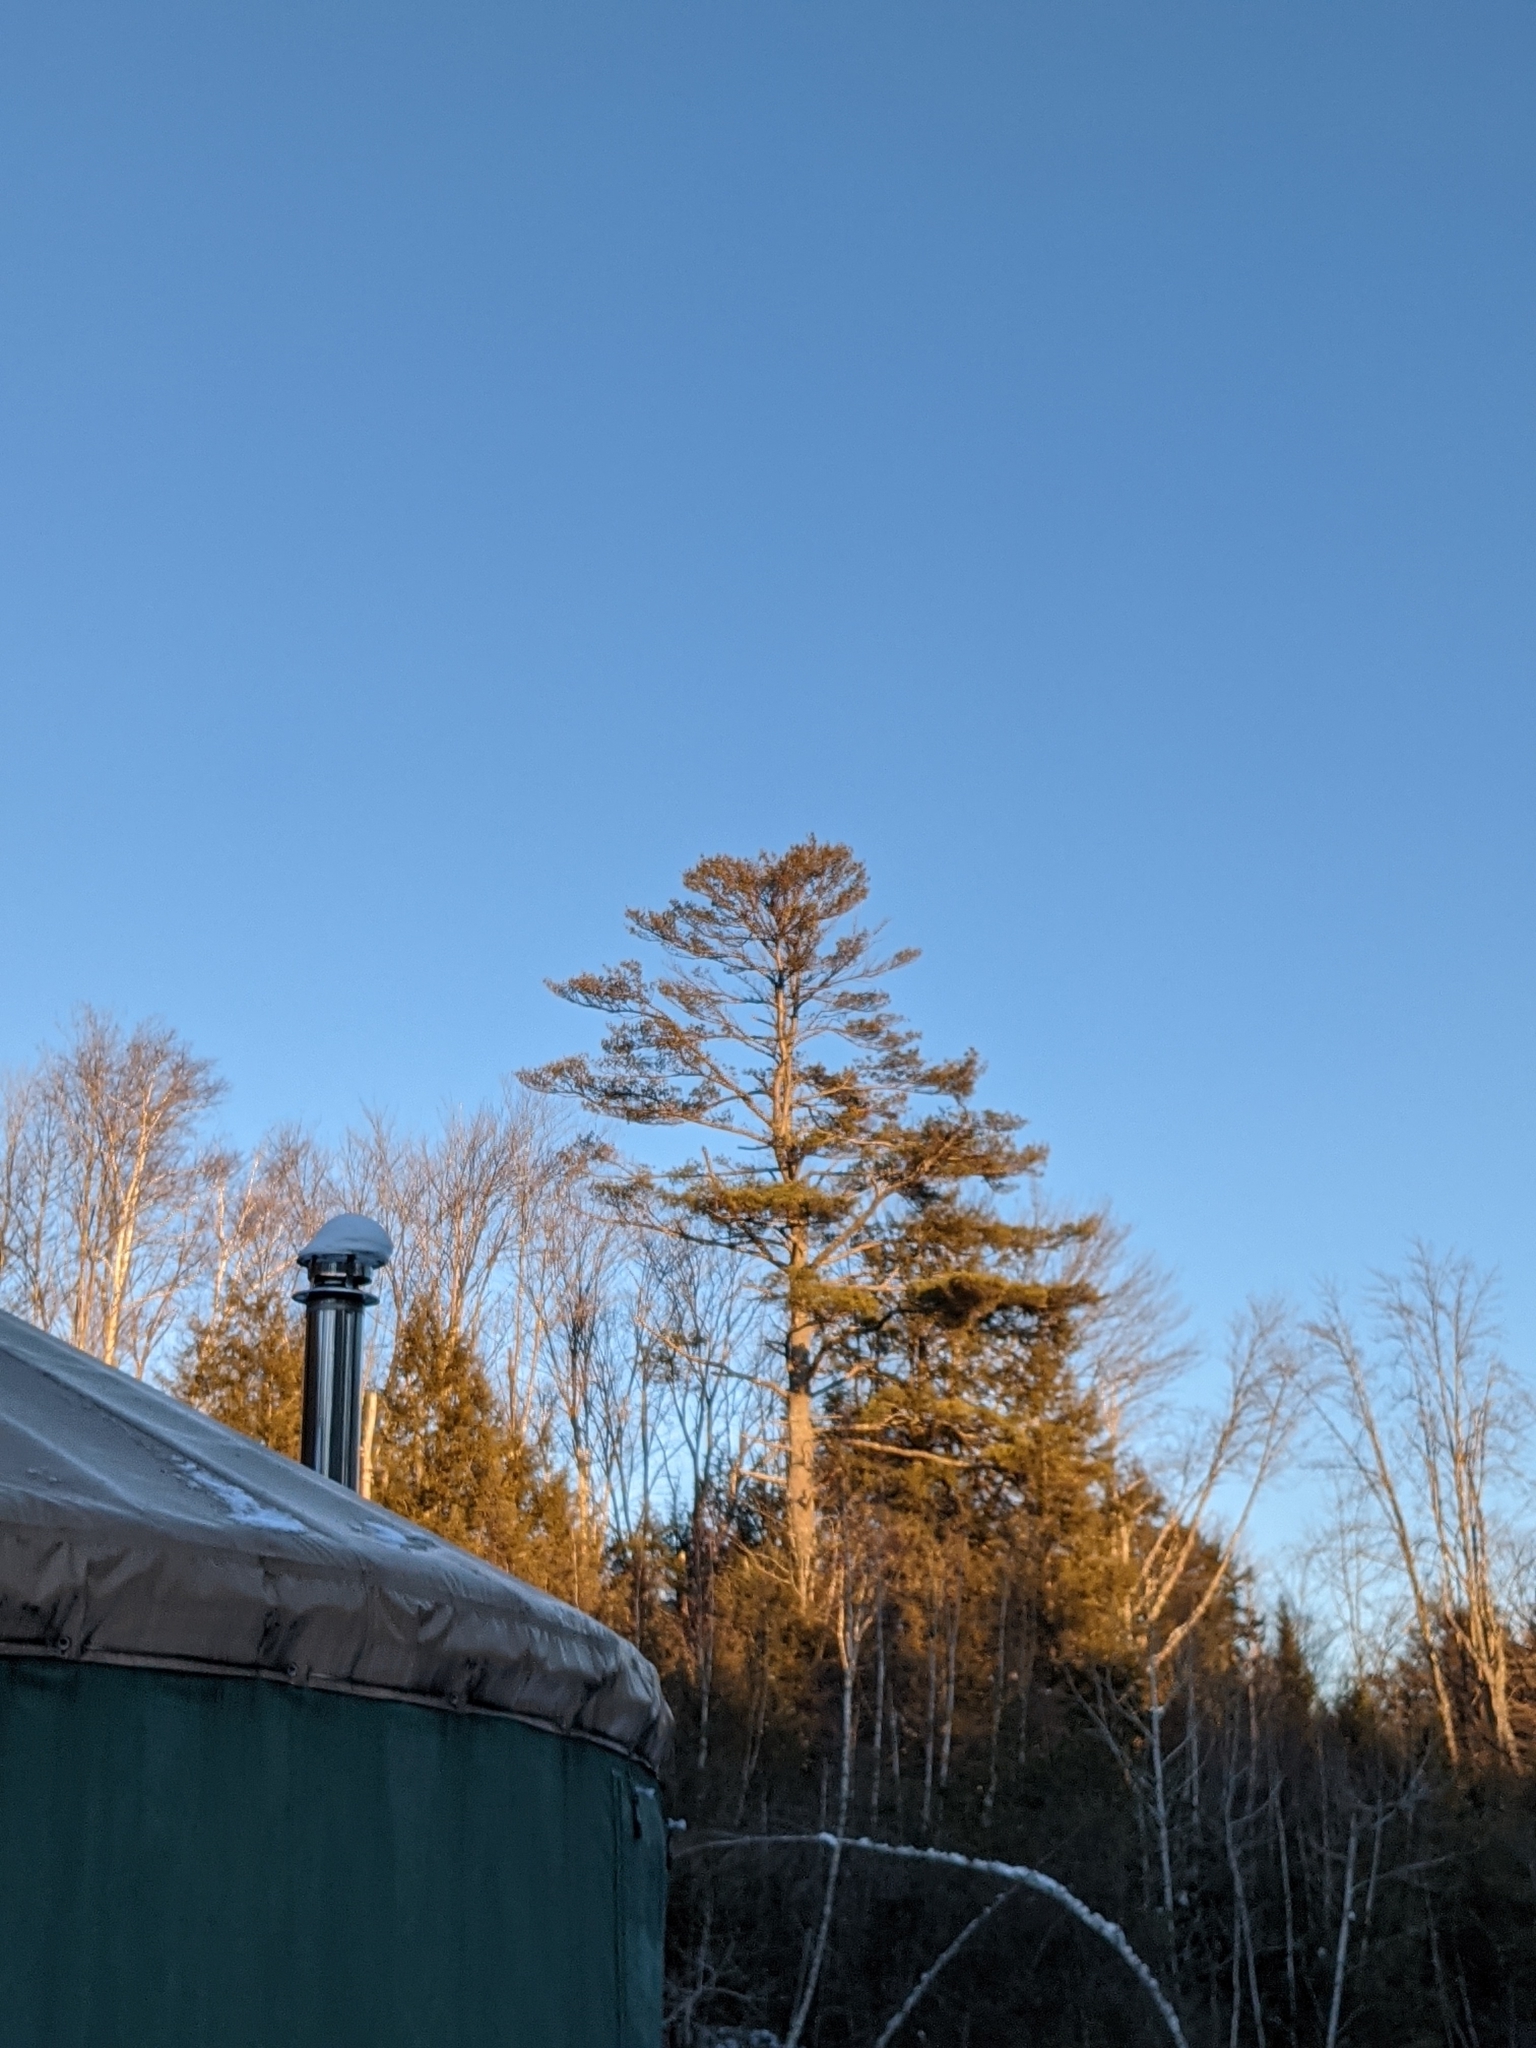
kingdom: Plantae
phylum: Tracheophyta
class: Pinopsida
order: Pinales
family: Pinaceae
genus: Pinus
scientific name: Pinus strobus
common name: Weymouth pine
